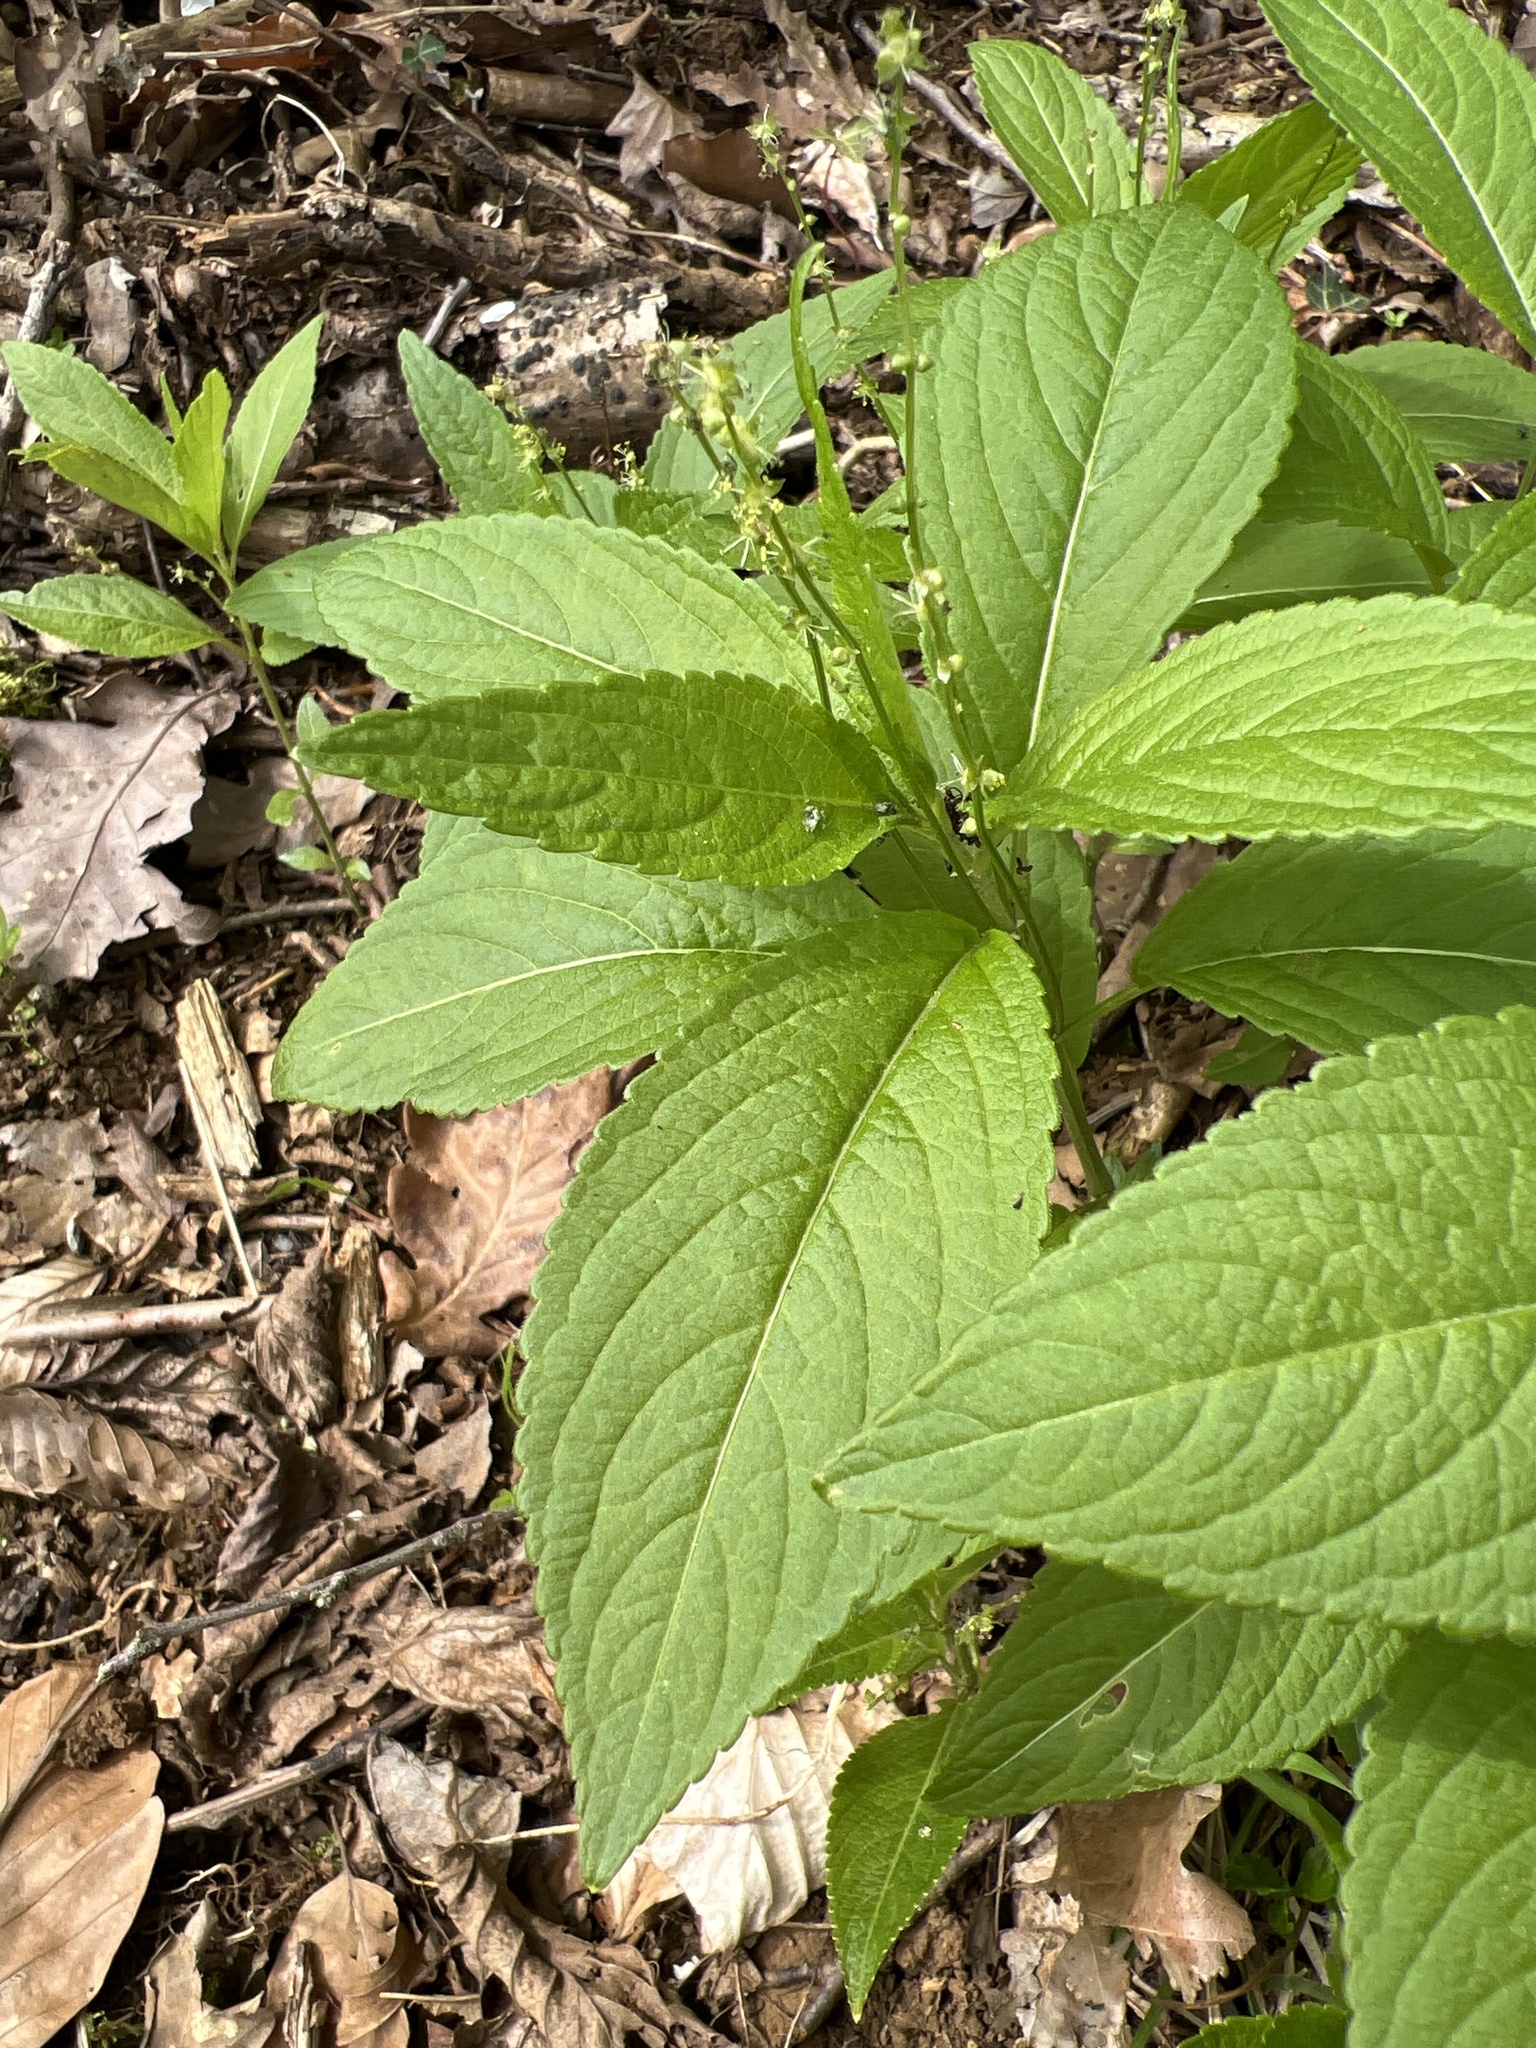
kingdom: Plantae
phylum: Tracheophyta
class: Magnoliopsida
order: Malpighiales
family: Euphorbiaceae
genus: Mercurialis
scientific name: Mercurialis perennis
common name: Dog mercury
